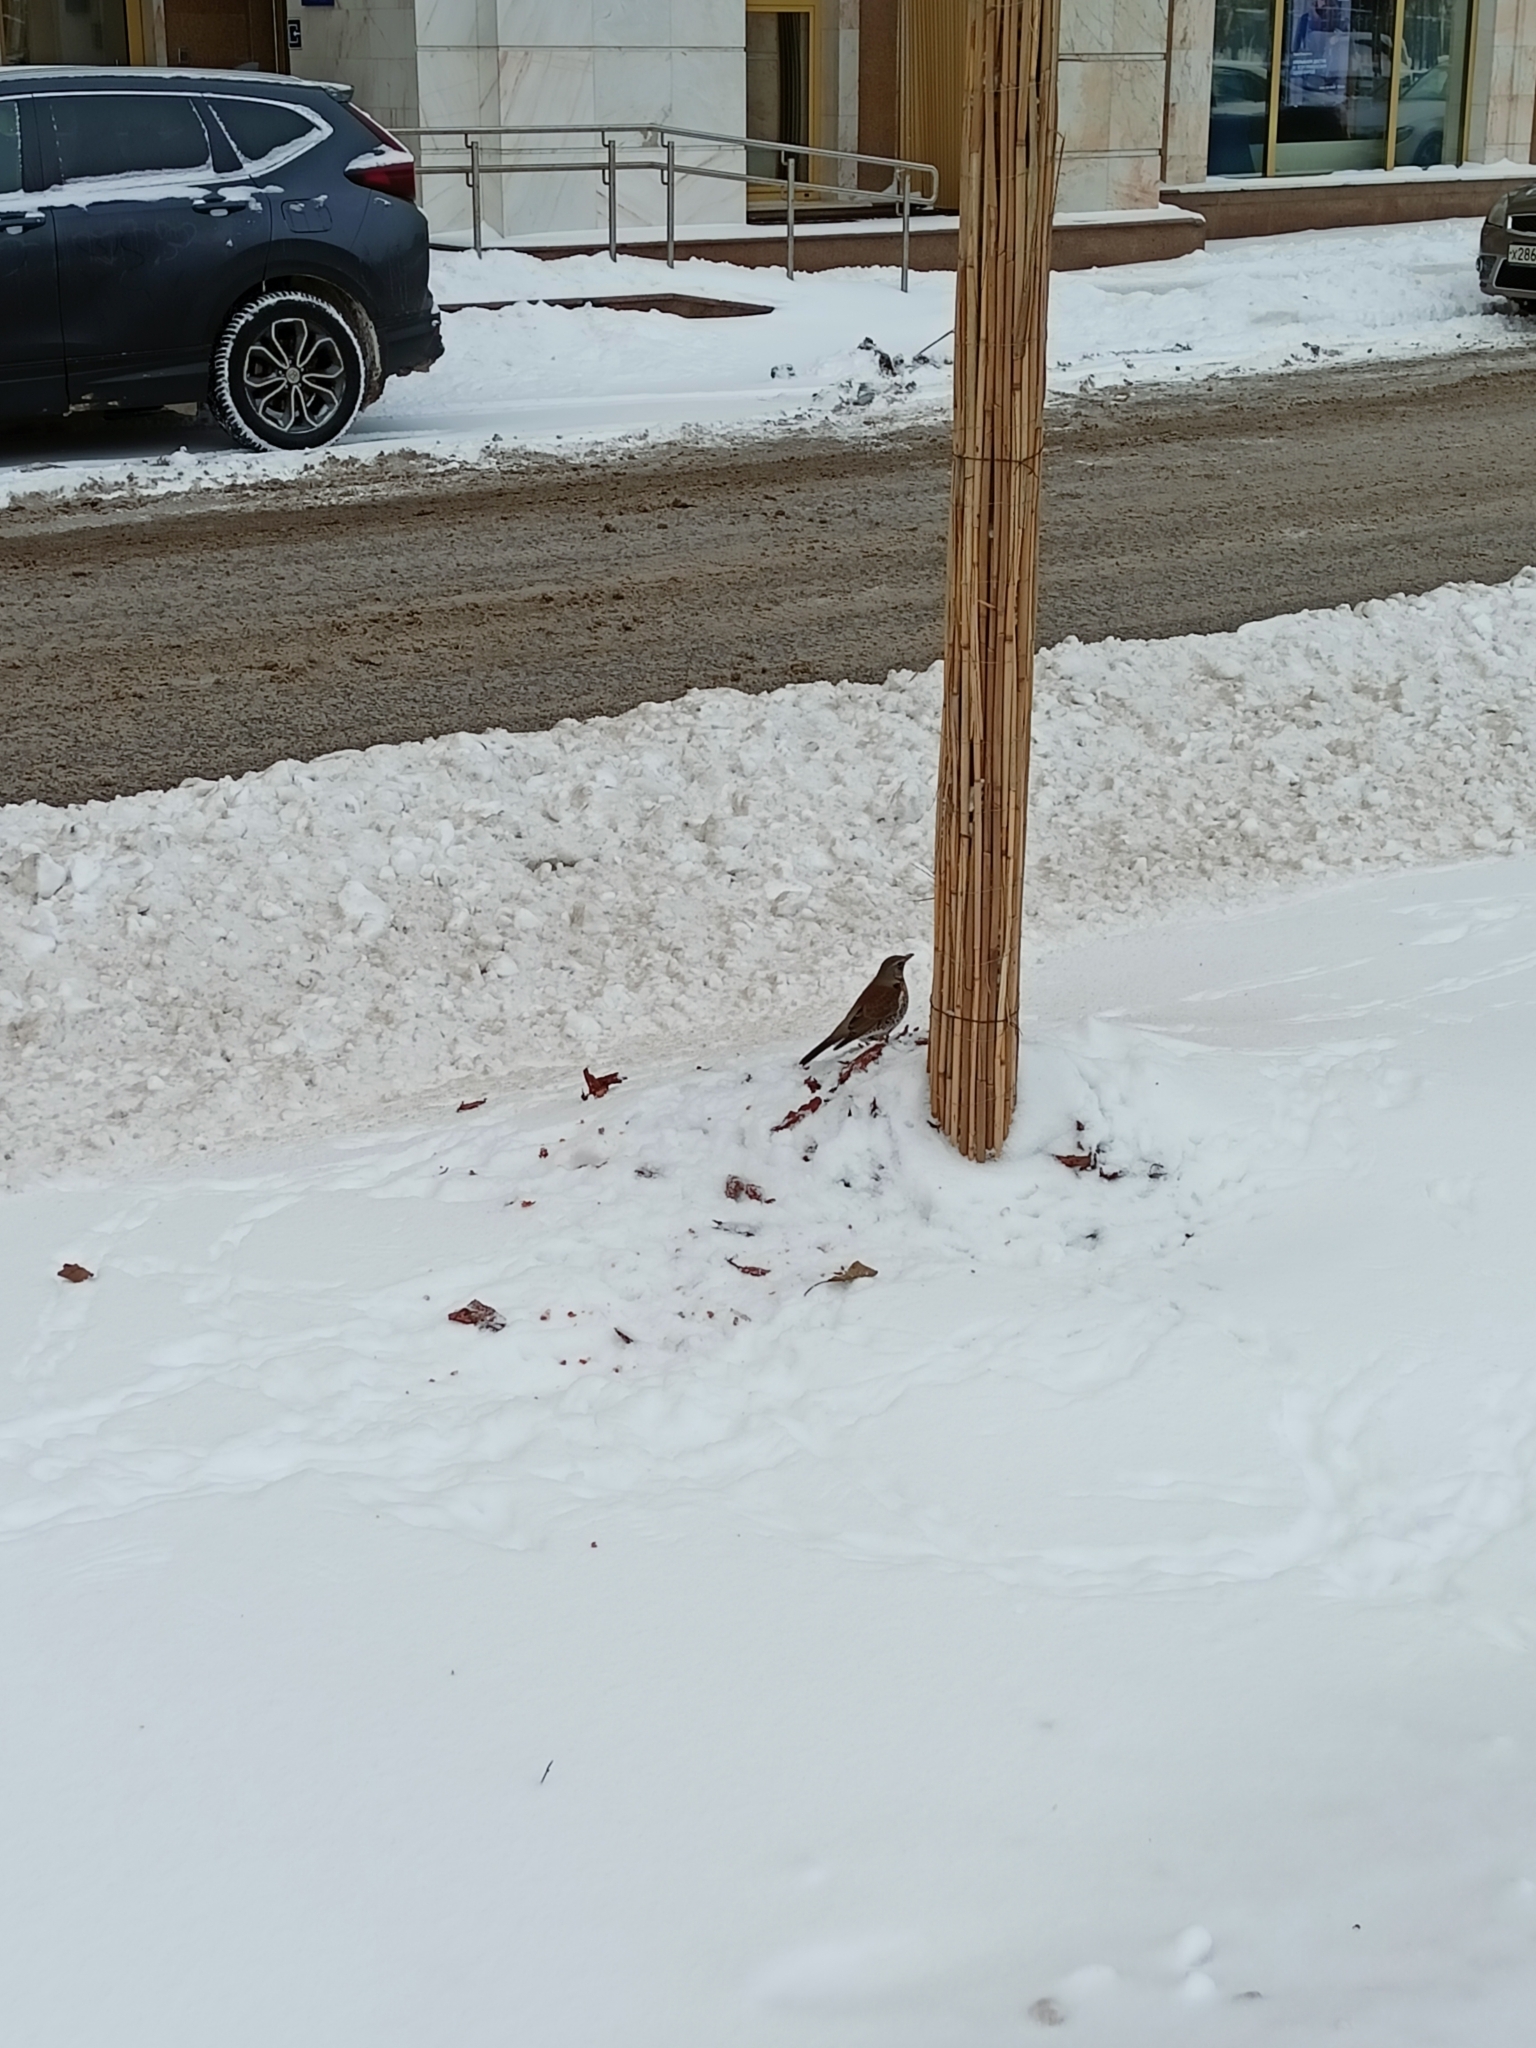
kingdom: Animalia
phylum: Chordata
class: Aves
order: Passeriformes
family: Turdidae
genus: Turdus
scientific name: Turdus pilaris
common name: Fieldfare
